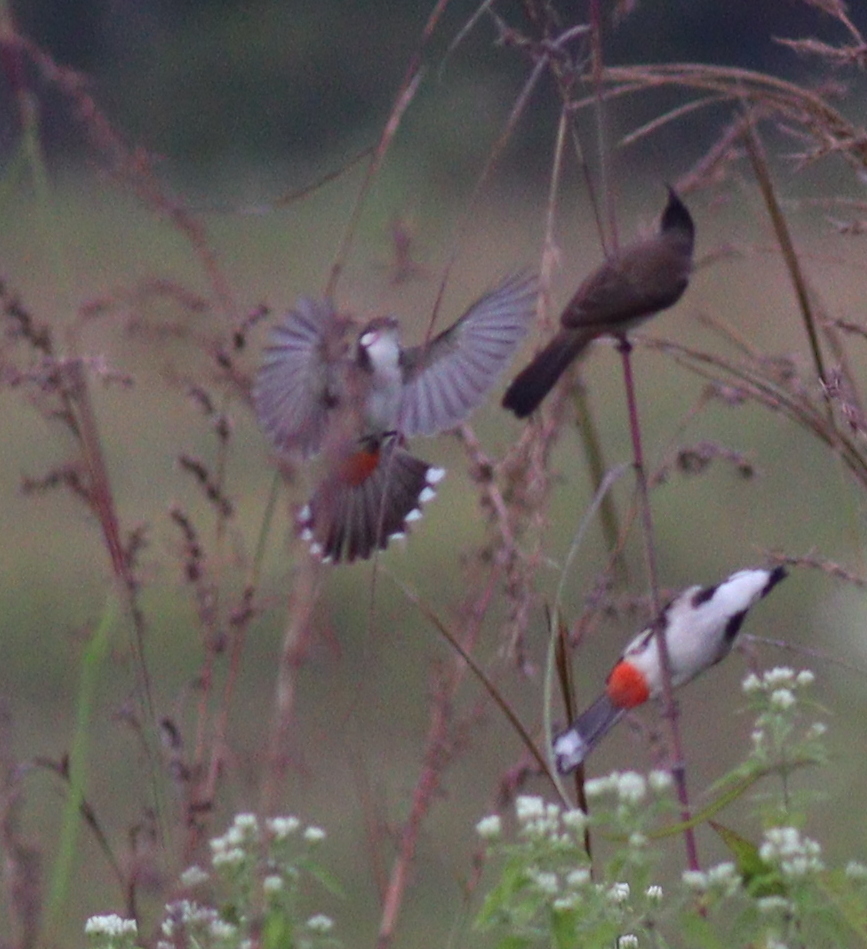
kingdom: Animalia
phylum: Chordata
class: Aves
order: Passeriformes
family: Pycnonotidae
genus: Pycnonotus
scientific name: Pycnonotus jocosus
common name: Red-whiskered bulbul
